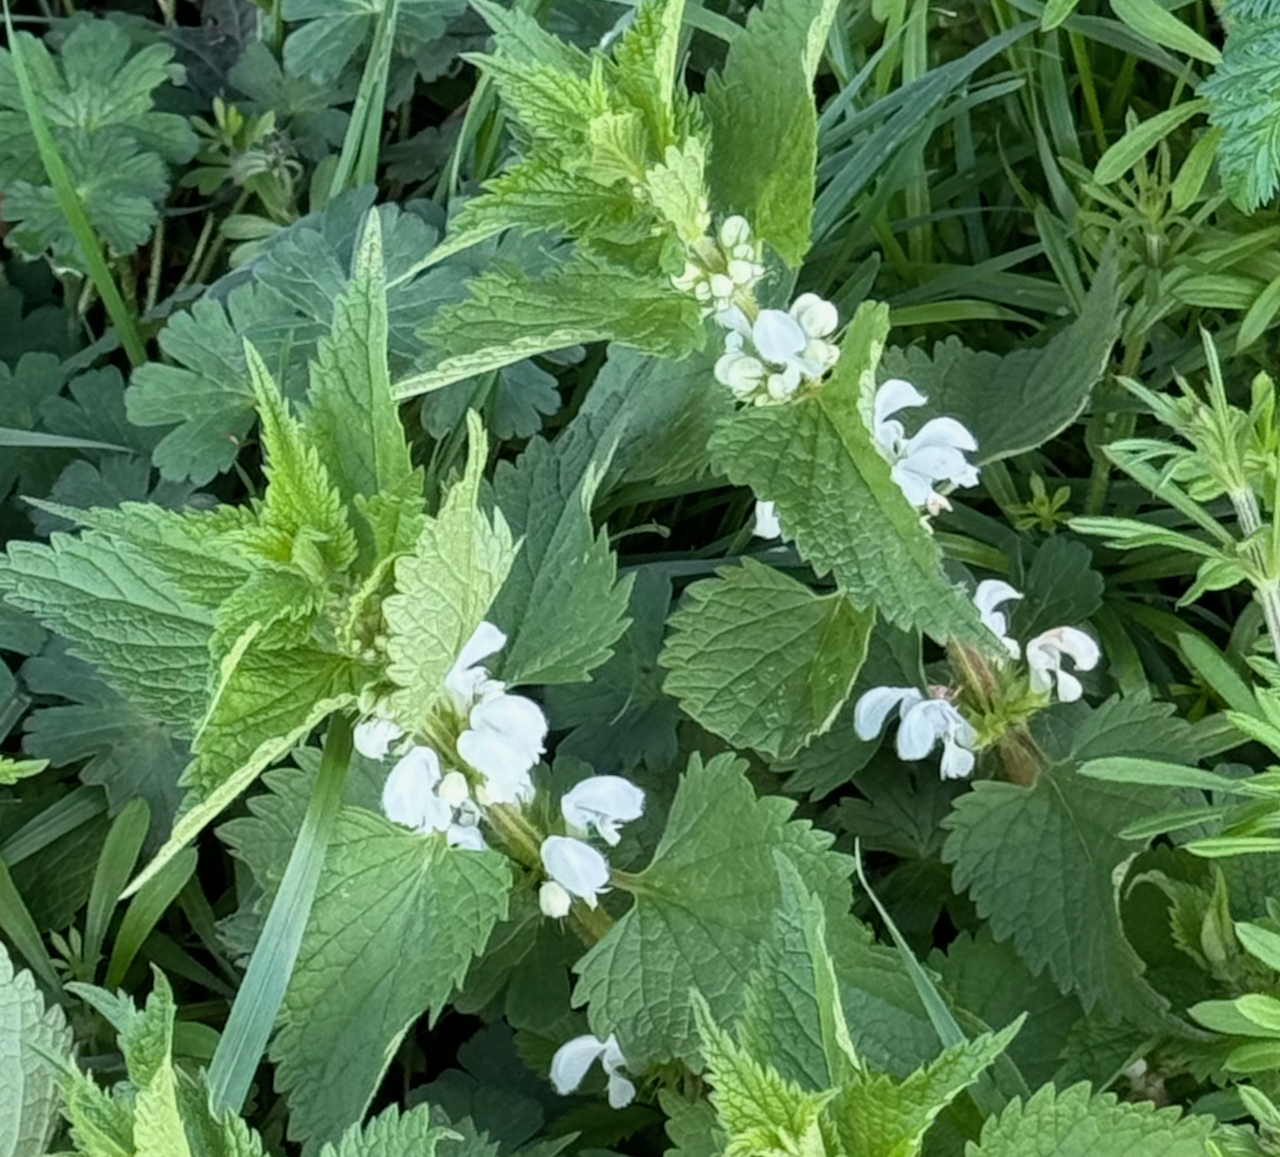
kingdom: Plantae
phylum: Tracheophyta
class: Magnoliopsida
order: Lamiales
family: Lamiaceae
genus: Lamium
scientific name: Lamium album
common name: White dead-nettle
